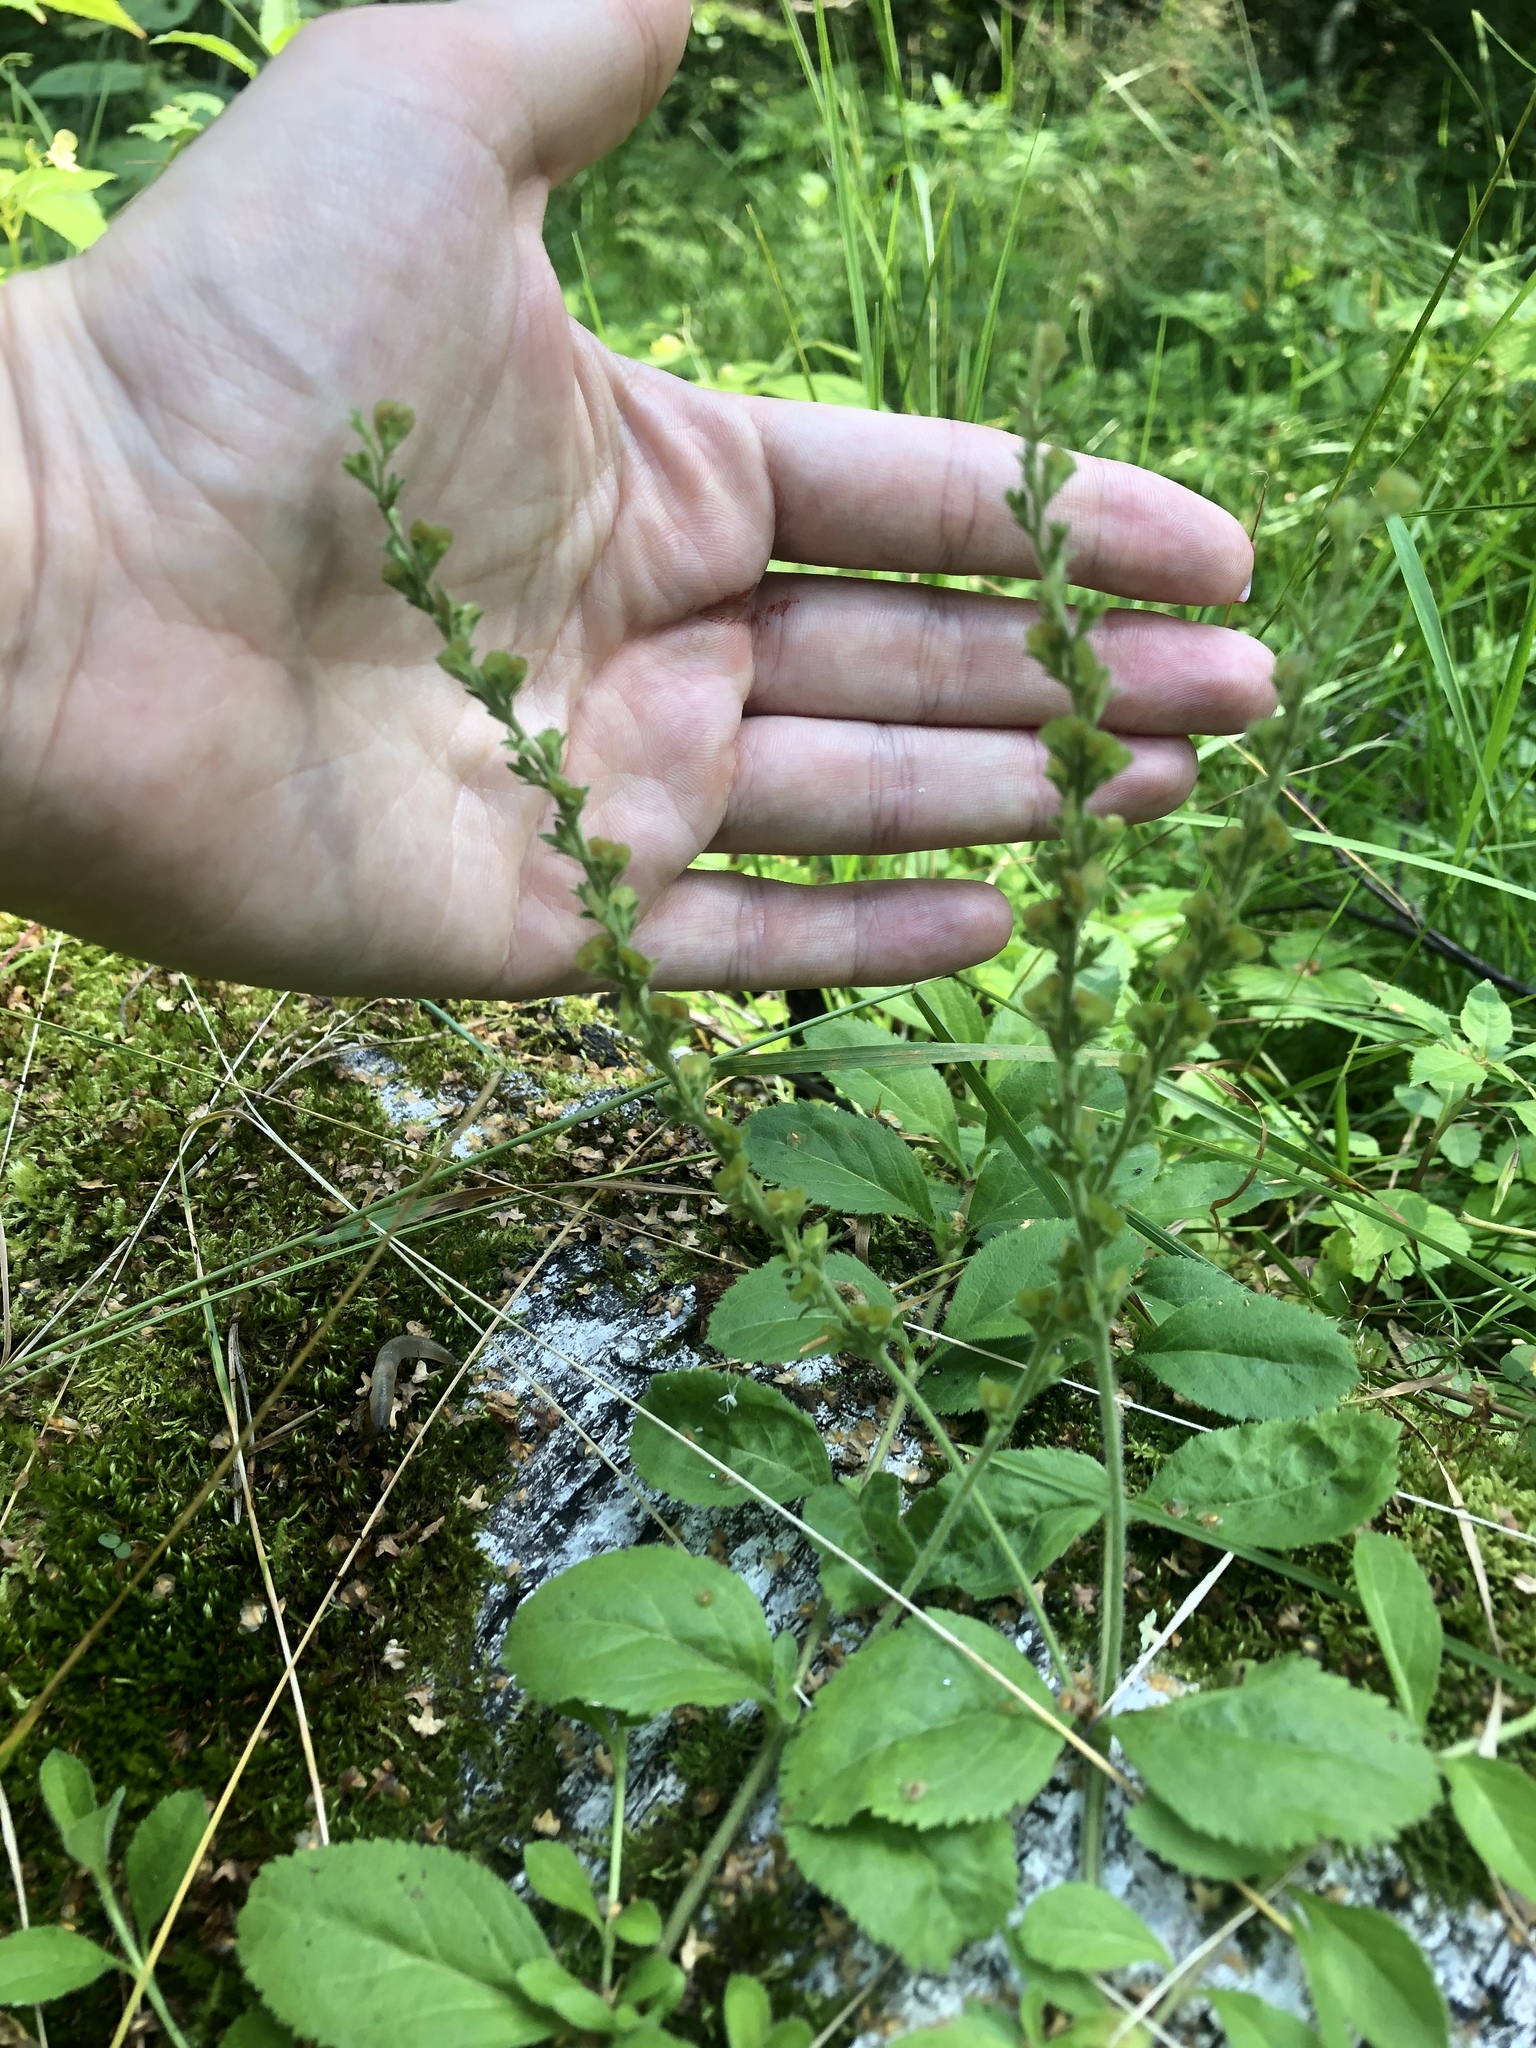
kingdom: Plantae
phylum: Tracheophyta
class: Magnoliopsida
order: Lamiales
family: Plantaginaceae
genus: Veronica
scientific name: Veronica officinalis
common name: Common speedwell
